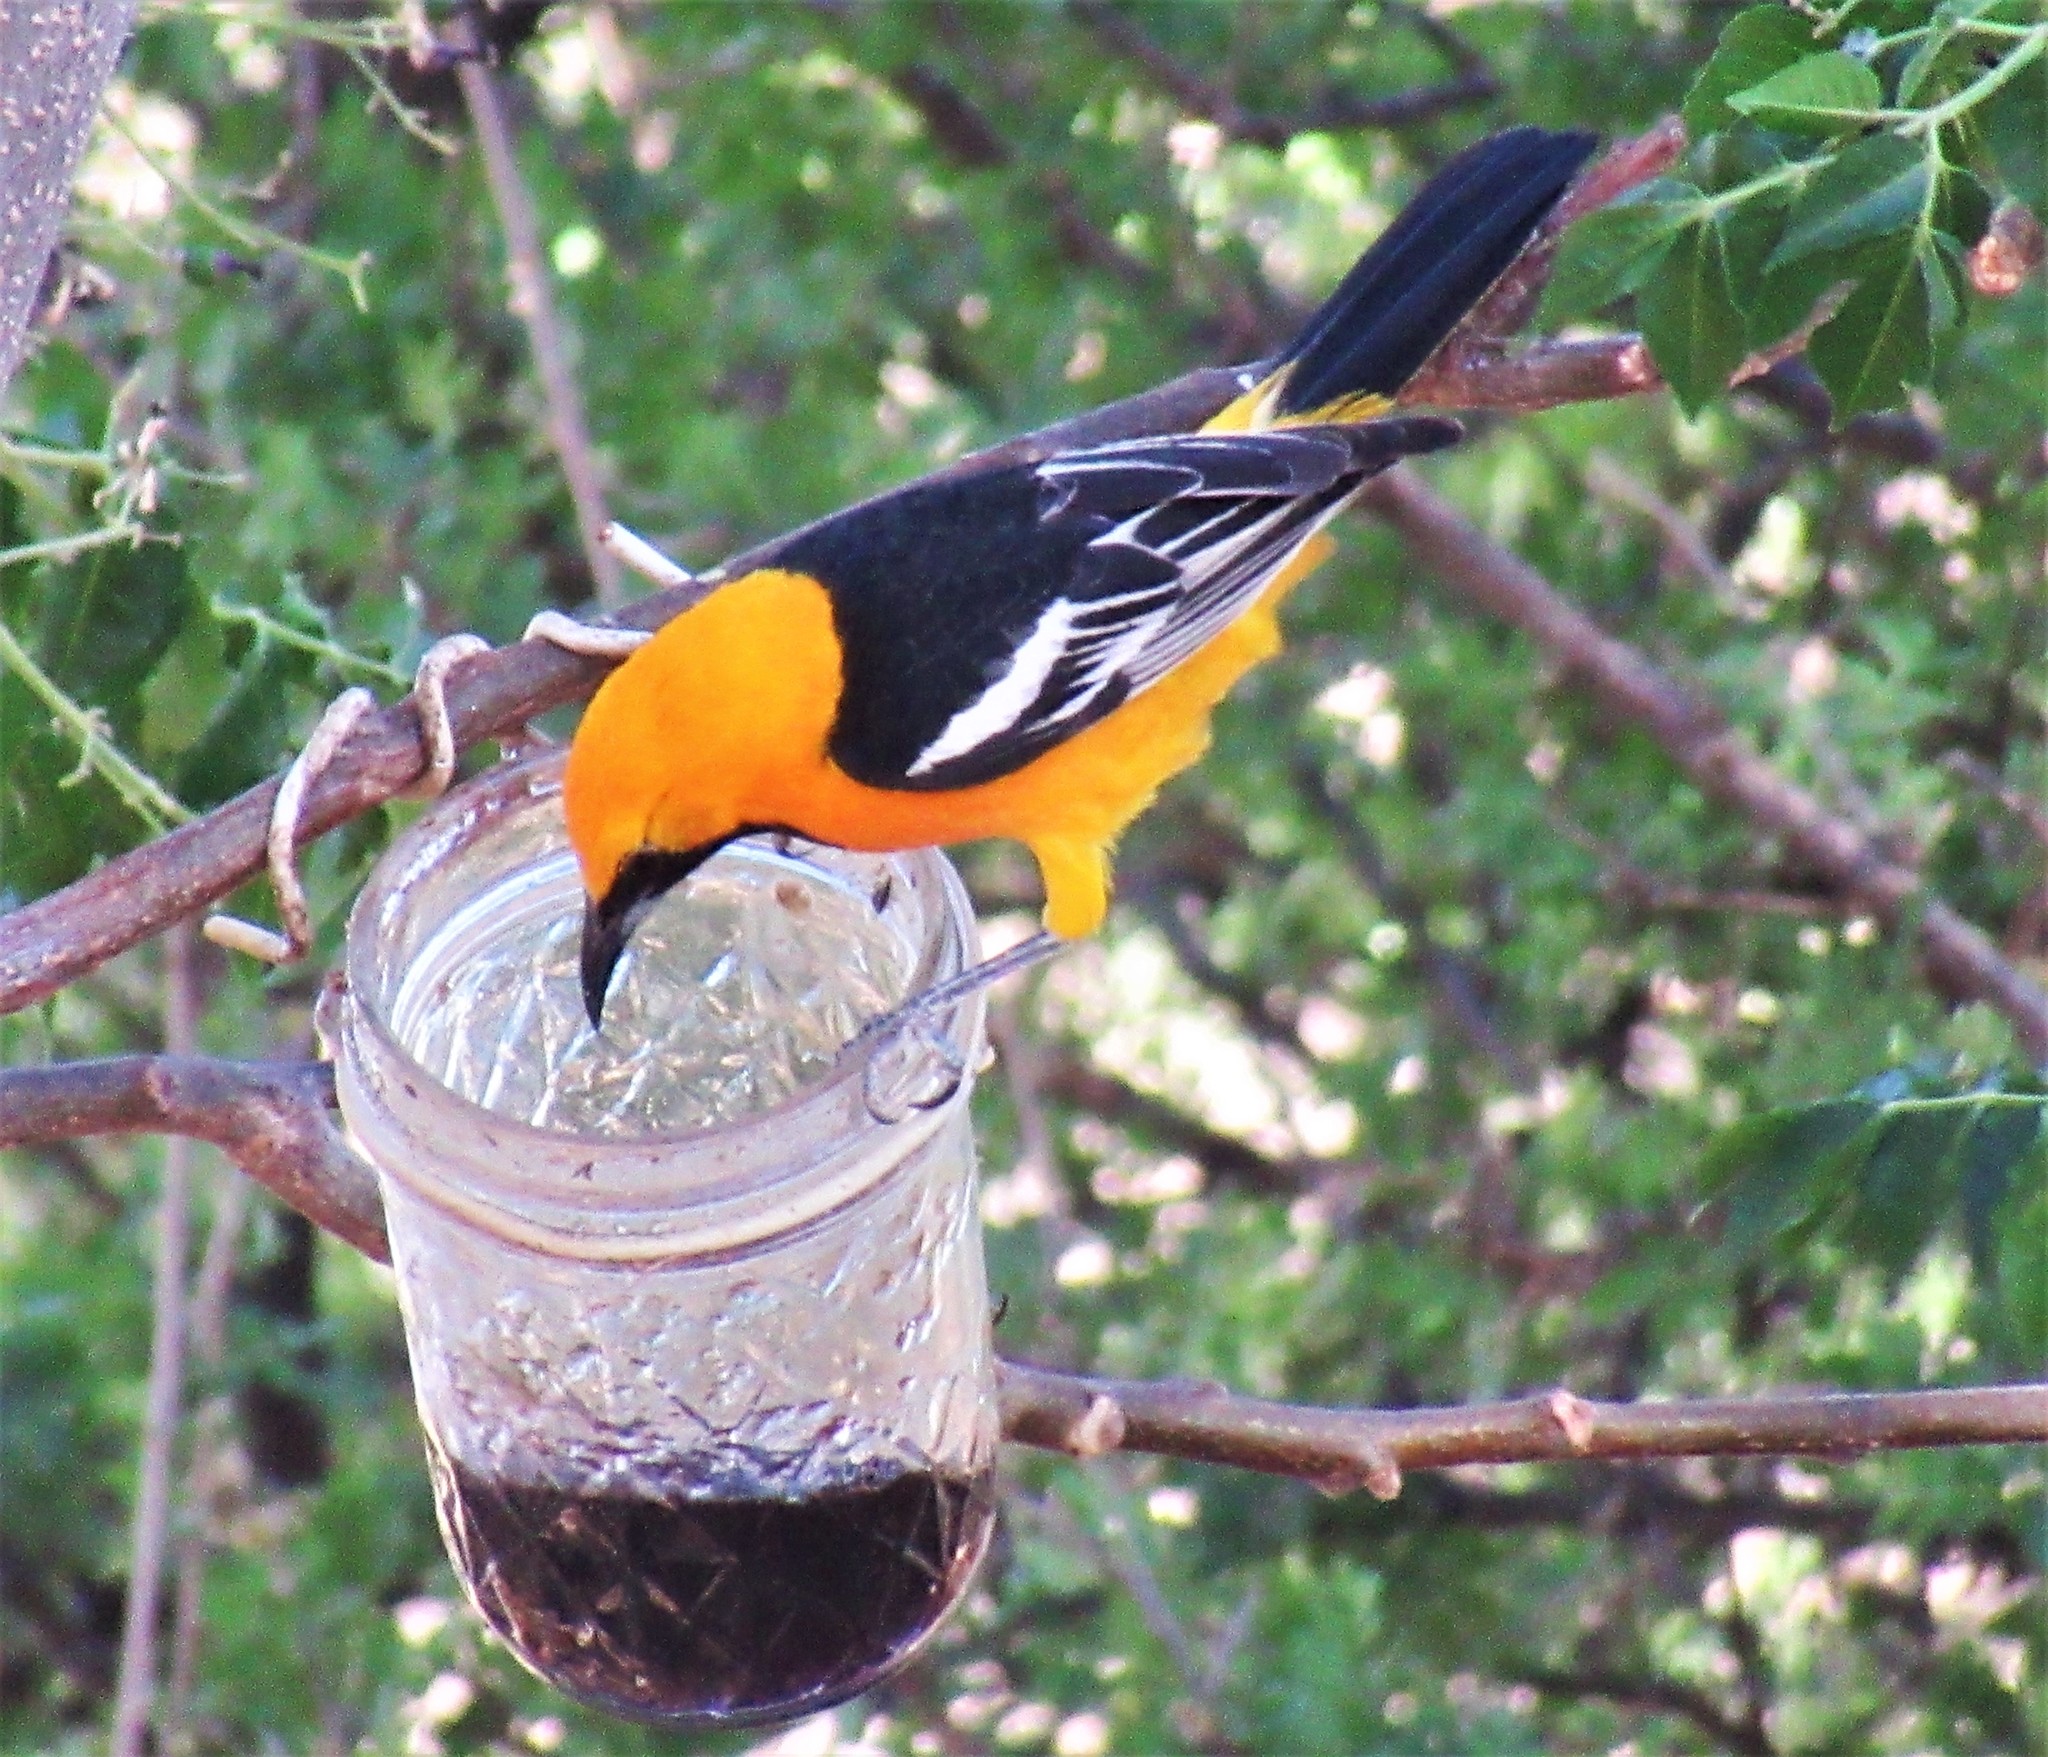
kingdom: Animalia
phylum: Chordata
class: Aves
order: Passeriformes
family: Icteridae
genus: Icterus
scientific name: Icterus cucullatus
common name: Hooded oriole
